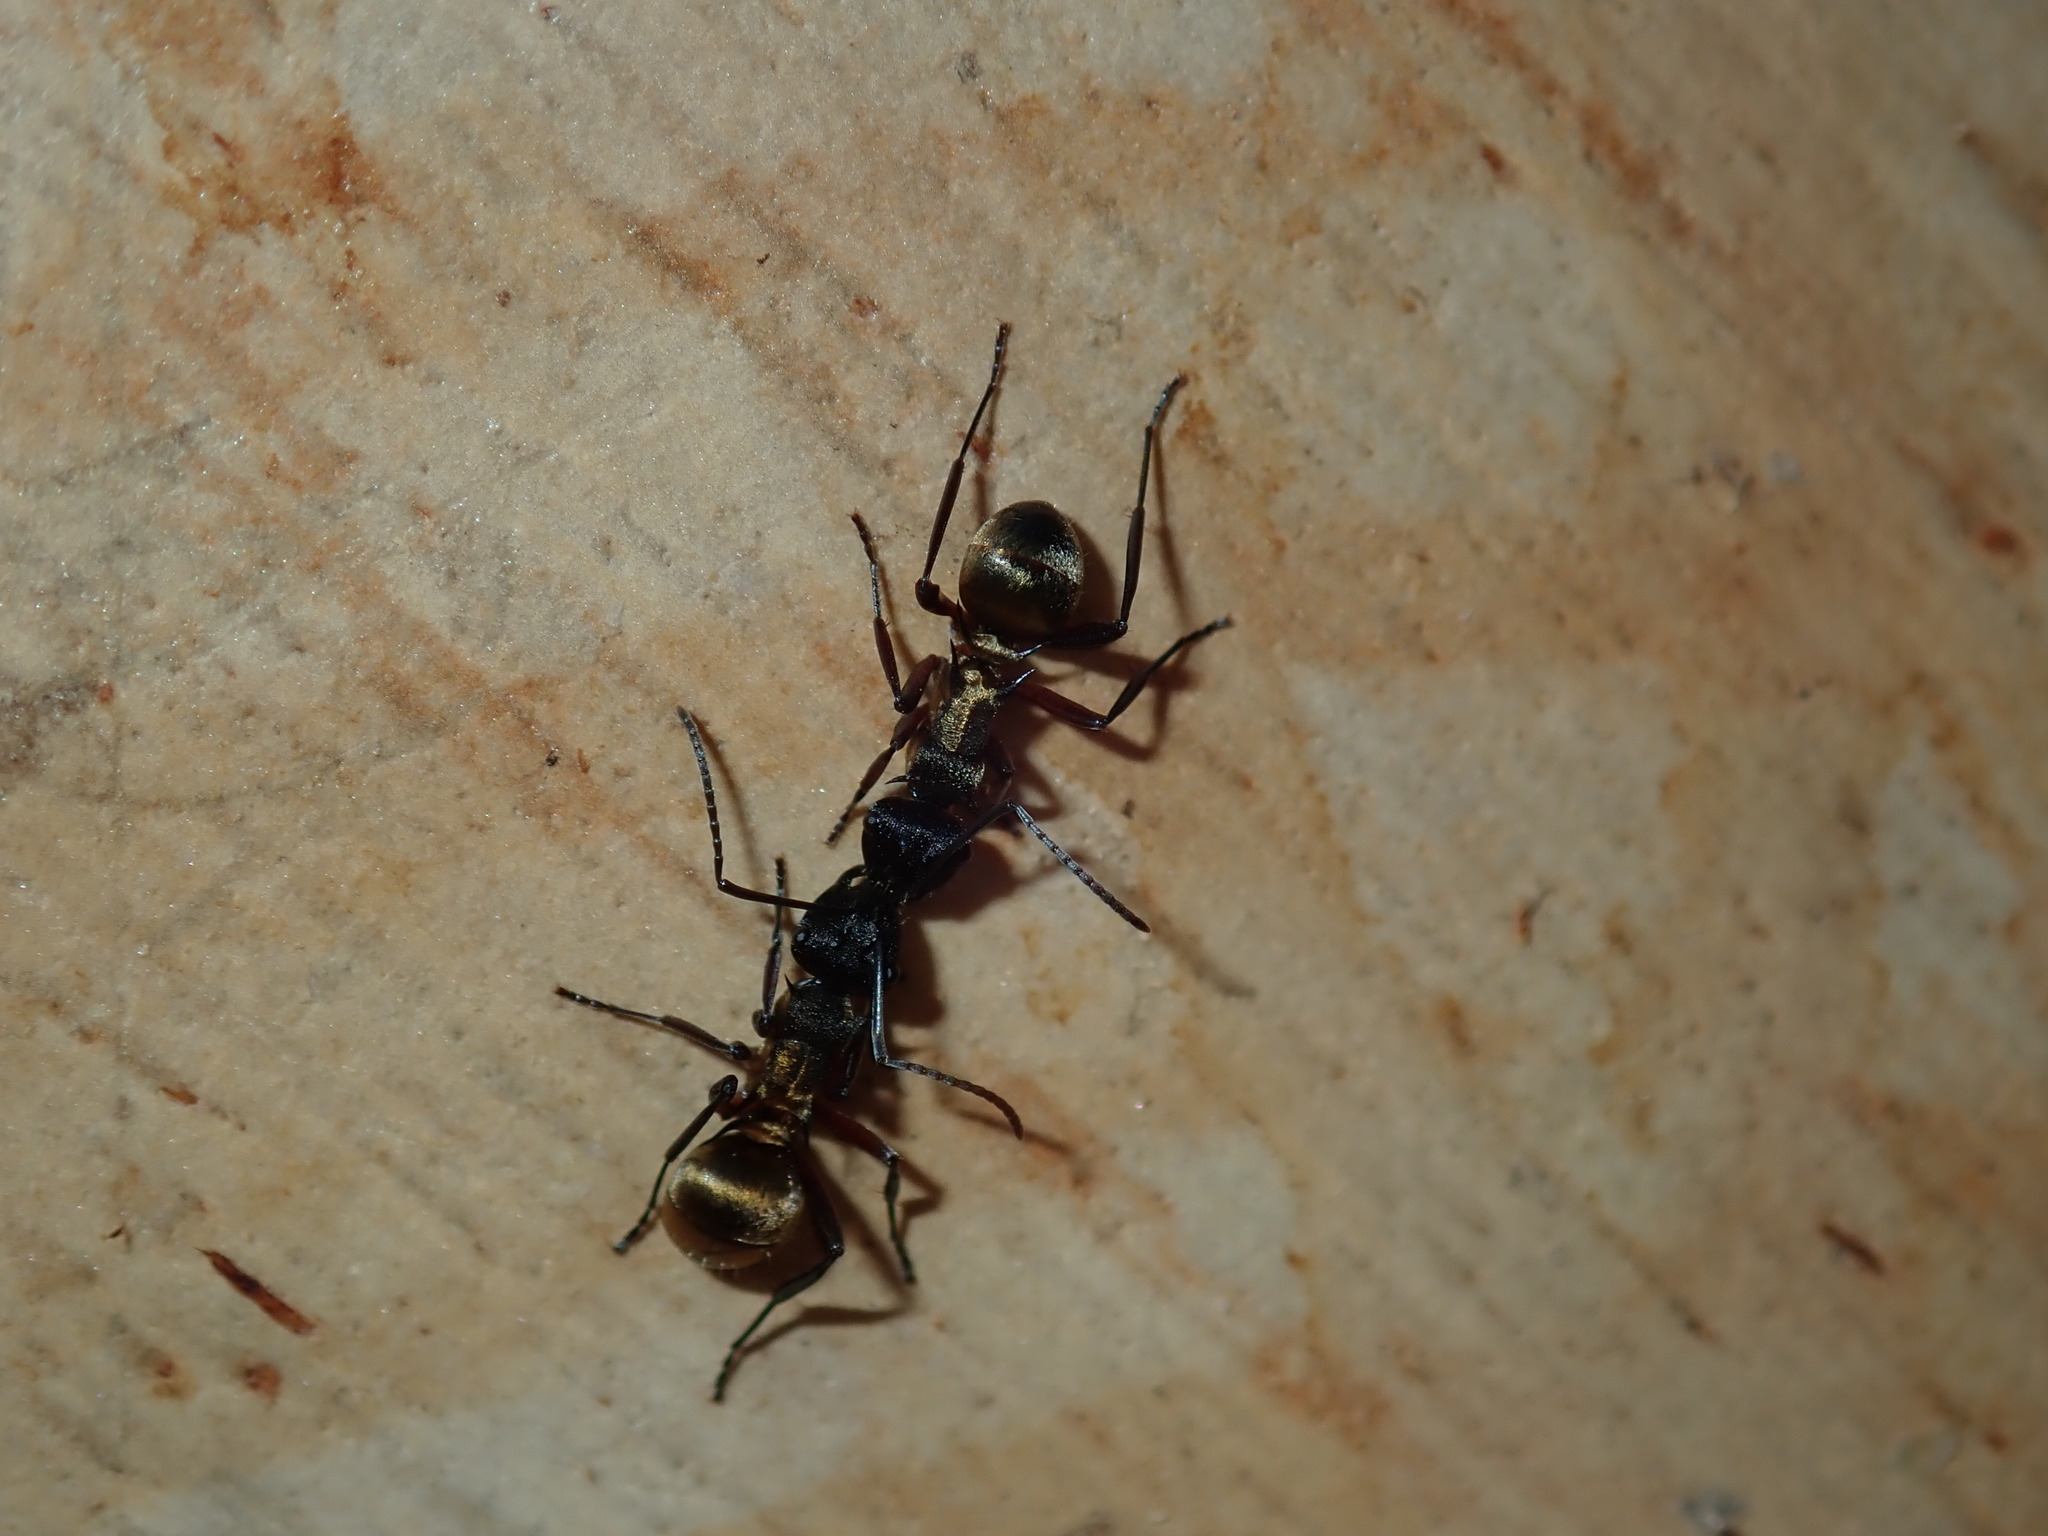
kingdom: Animalia
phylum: Arthropoda
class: Insecta
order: Hymenoptera
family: Formicidae
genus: Polyrhachis
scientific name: Polyrhachis rufifemur
